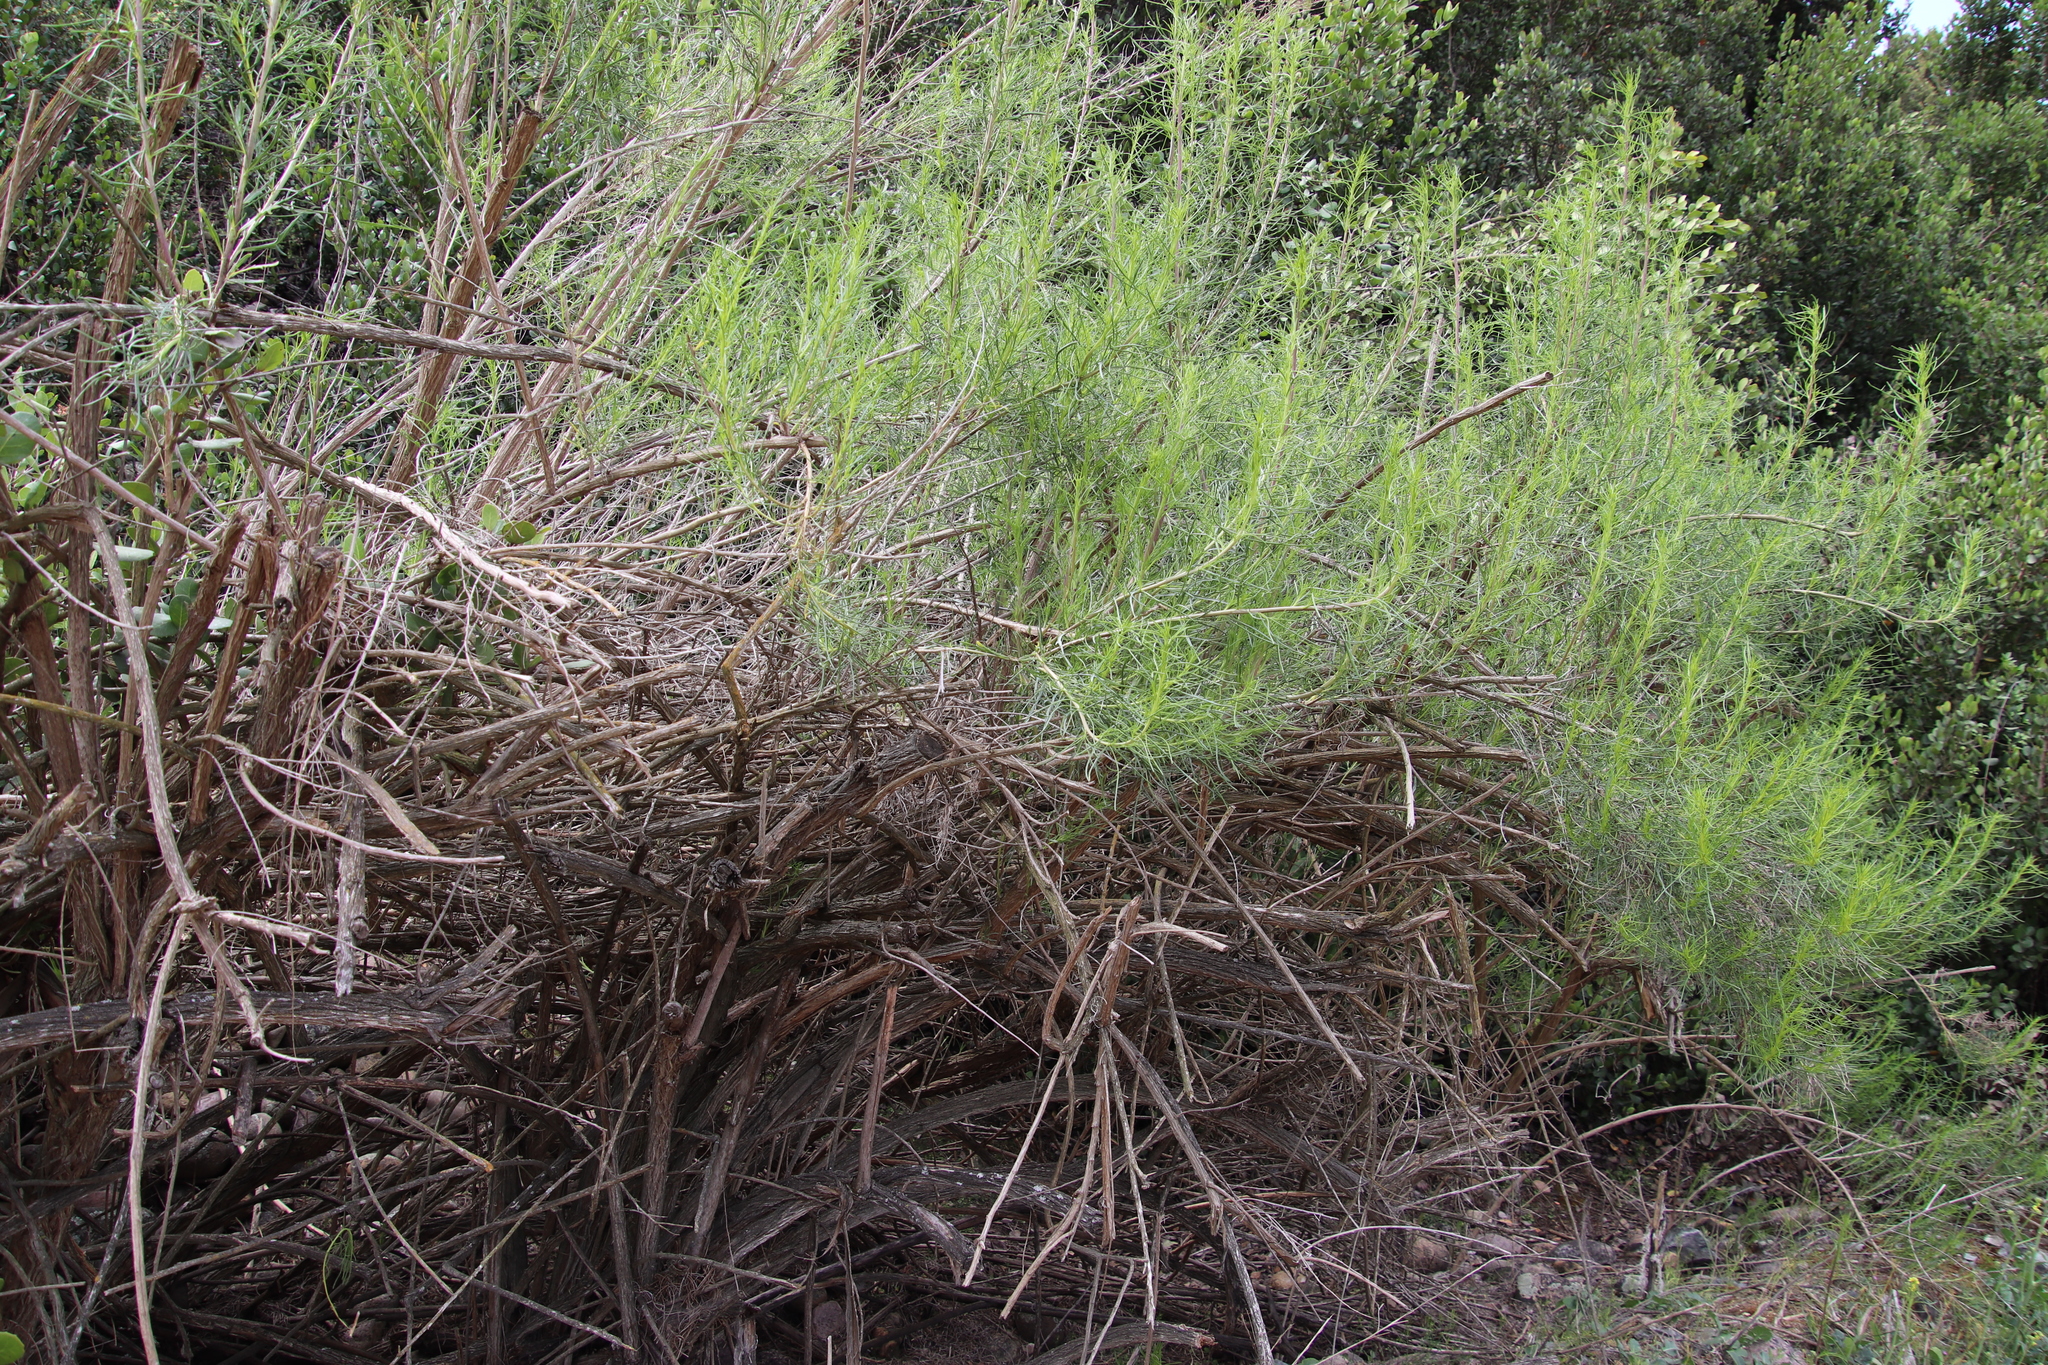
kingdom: Plantae
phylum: Tracheophyta
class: Magnoliopsida
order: Asterales
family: Asteraceae
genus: Ambrosia
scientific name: Ambrosia monogyra
